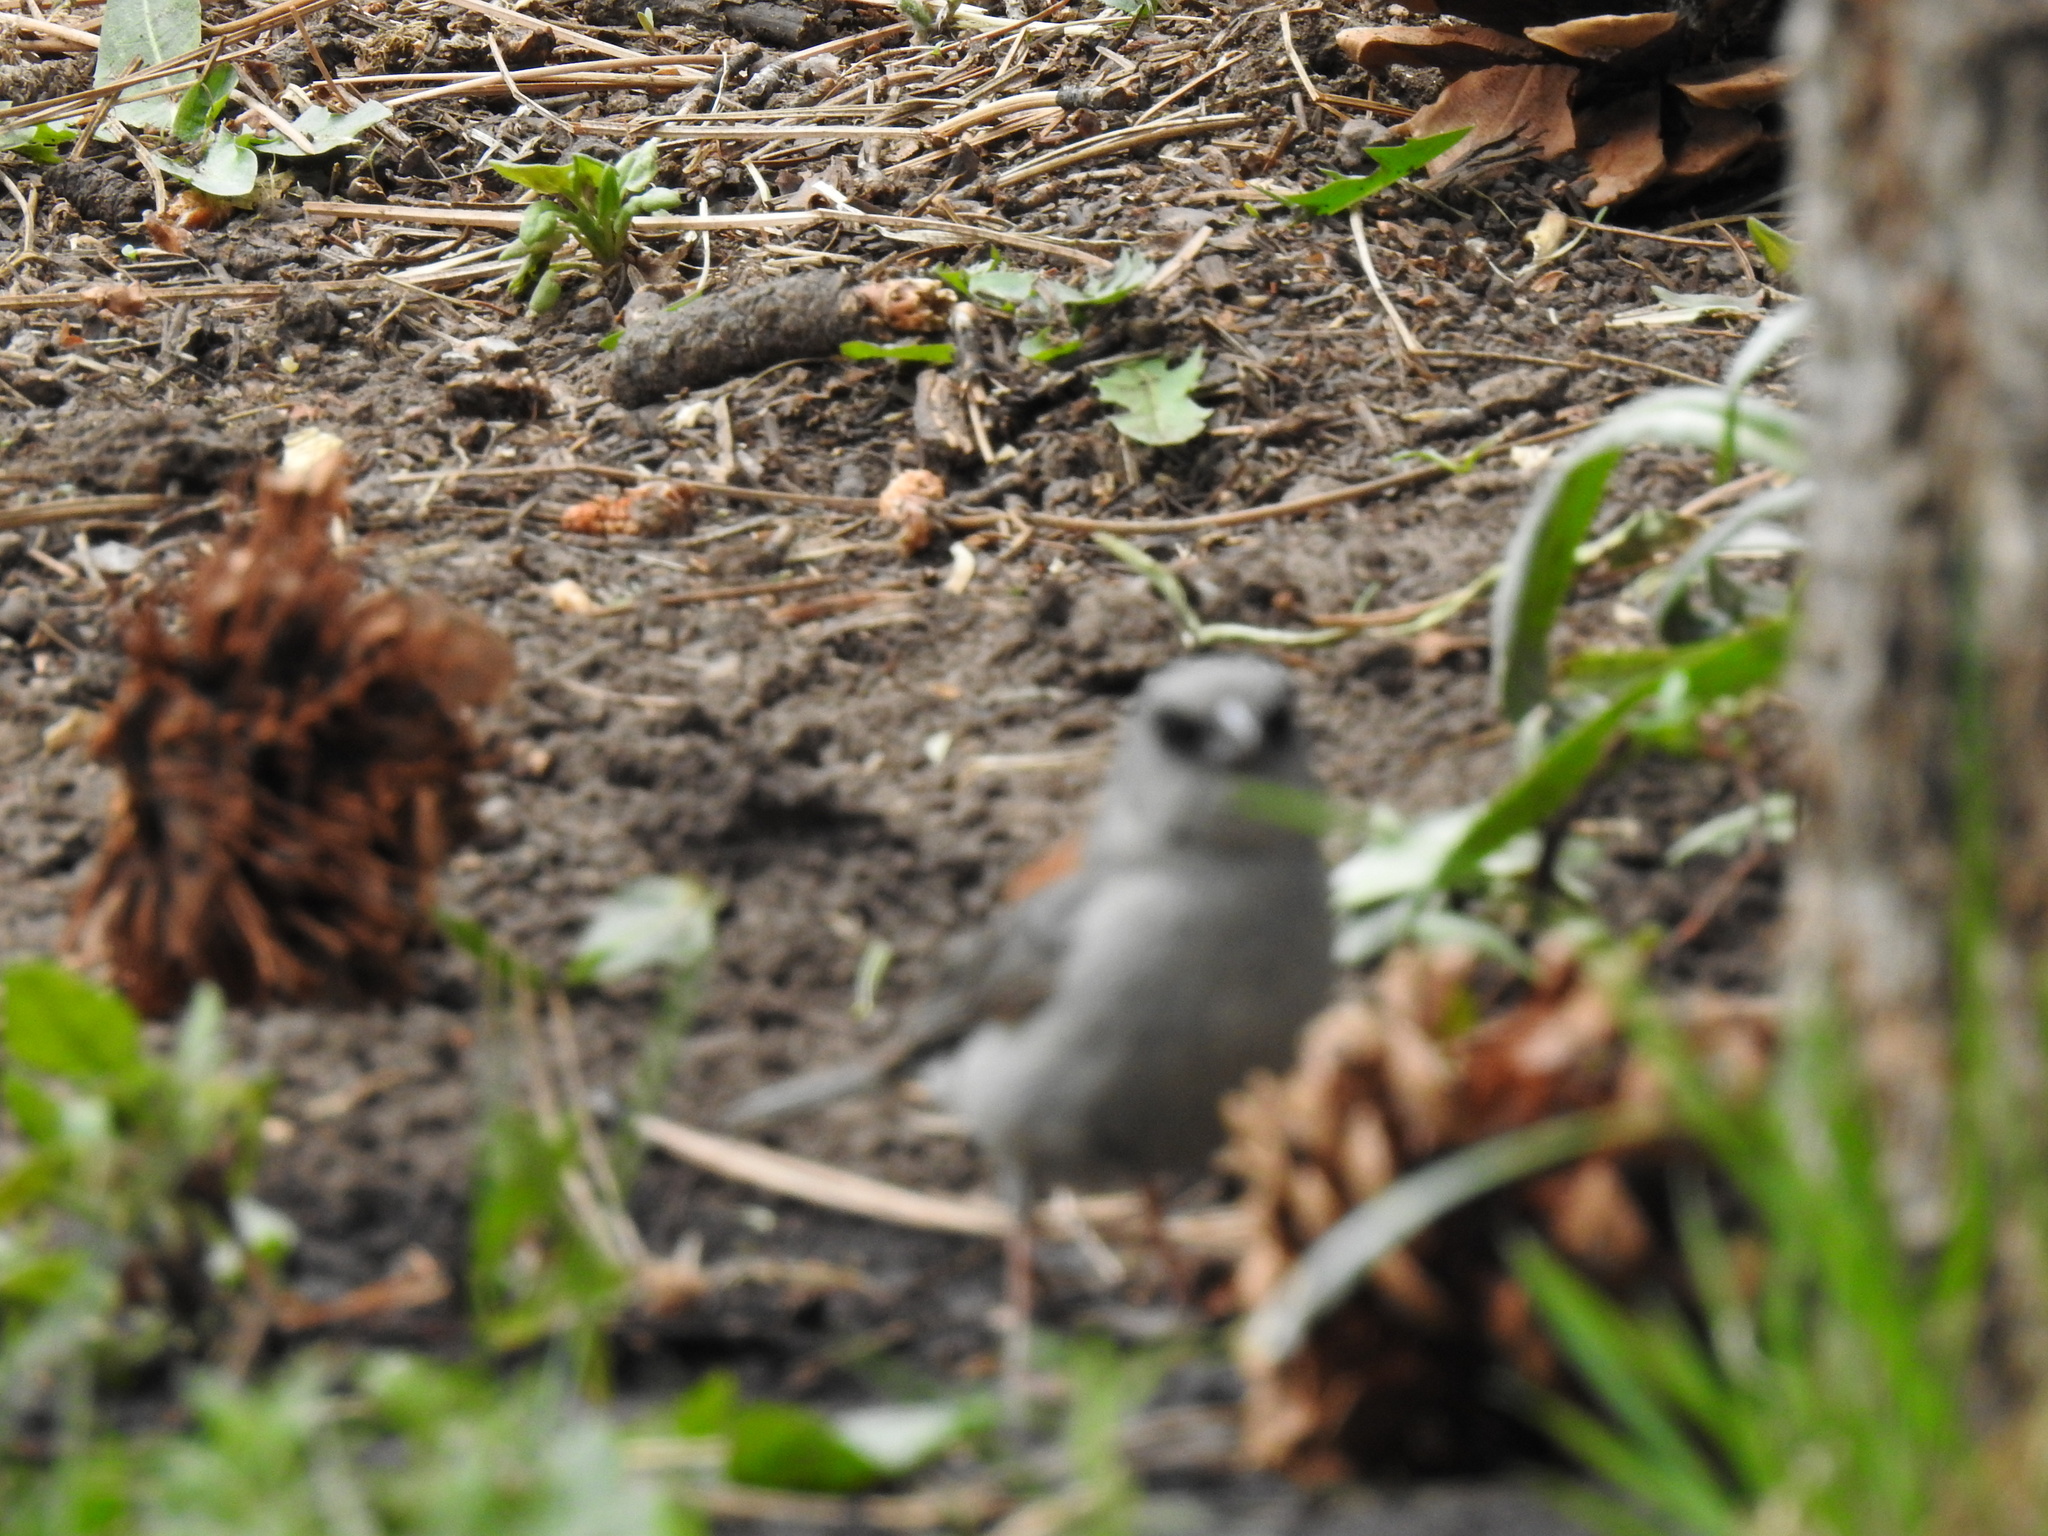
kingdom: Animalia
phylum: Chordata
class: Aves
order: Passeriformes
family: Passerellidae
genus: Junco
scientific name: Junco hyemalis
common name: Dark-eyed junco
